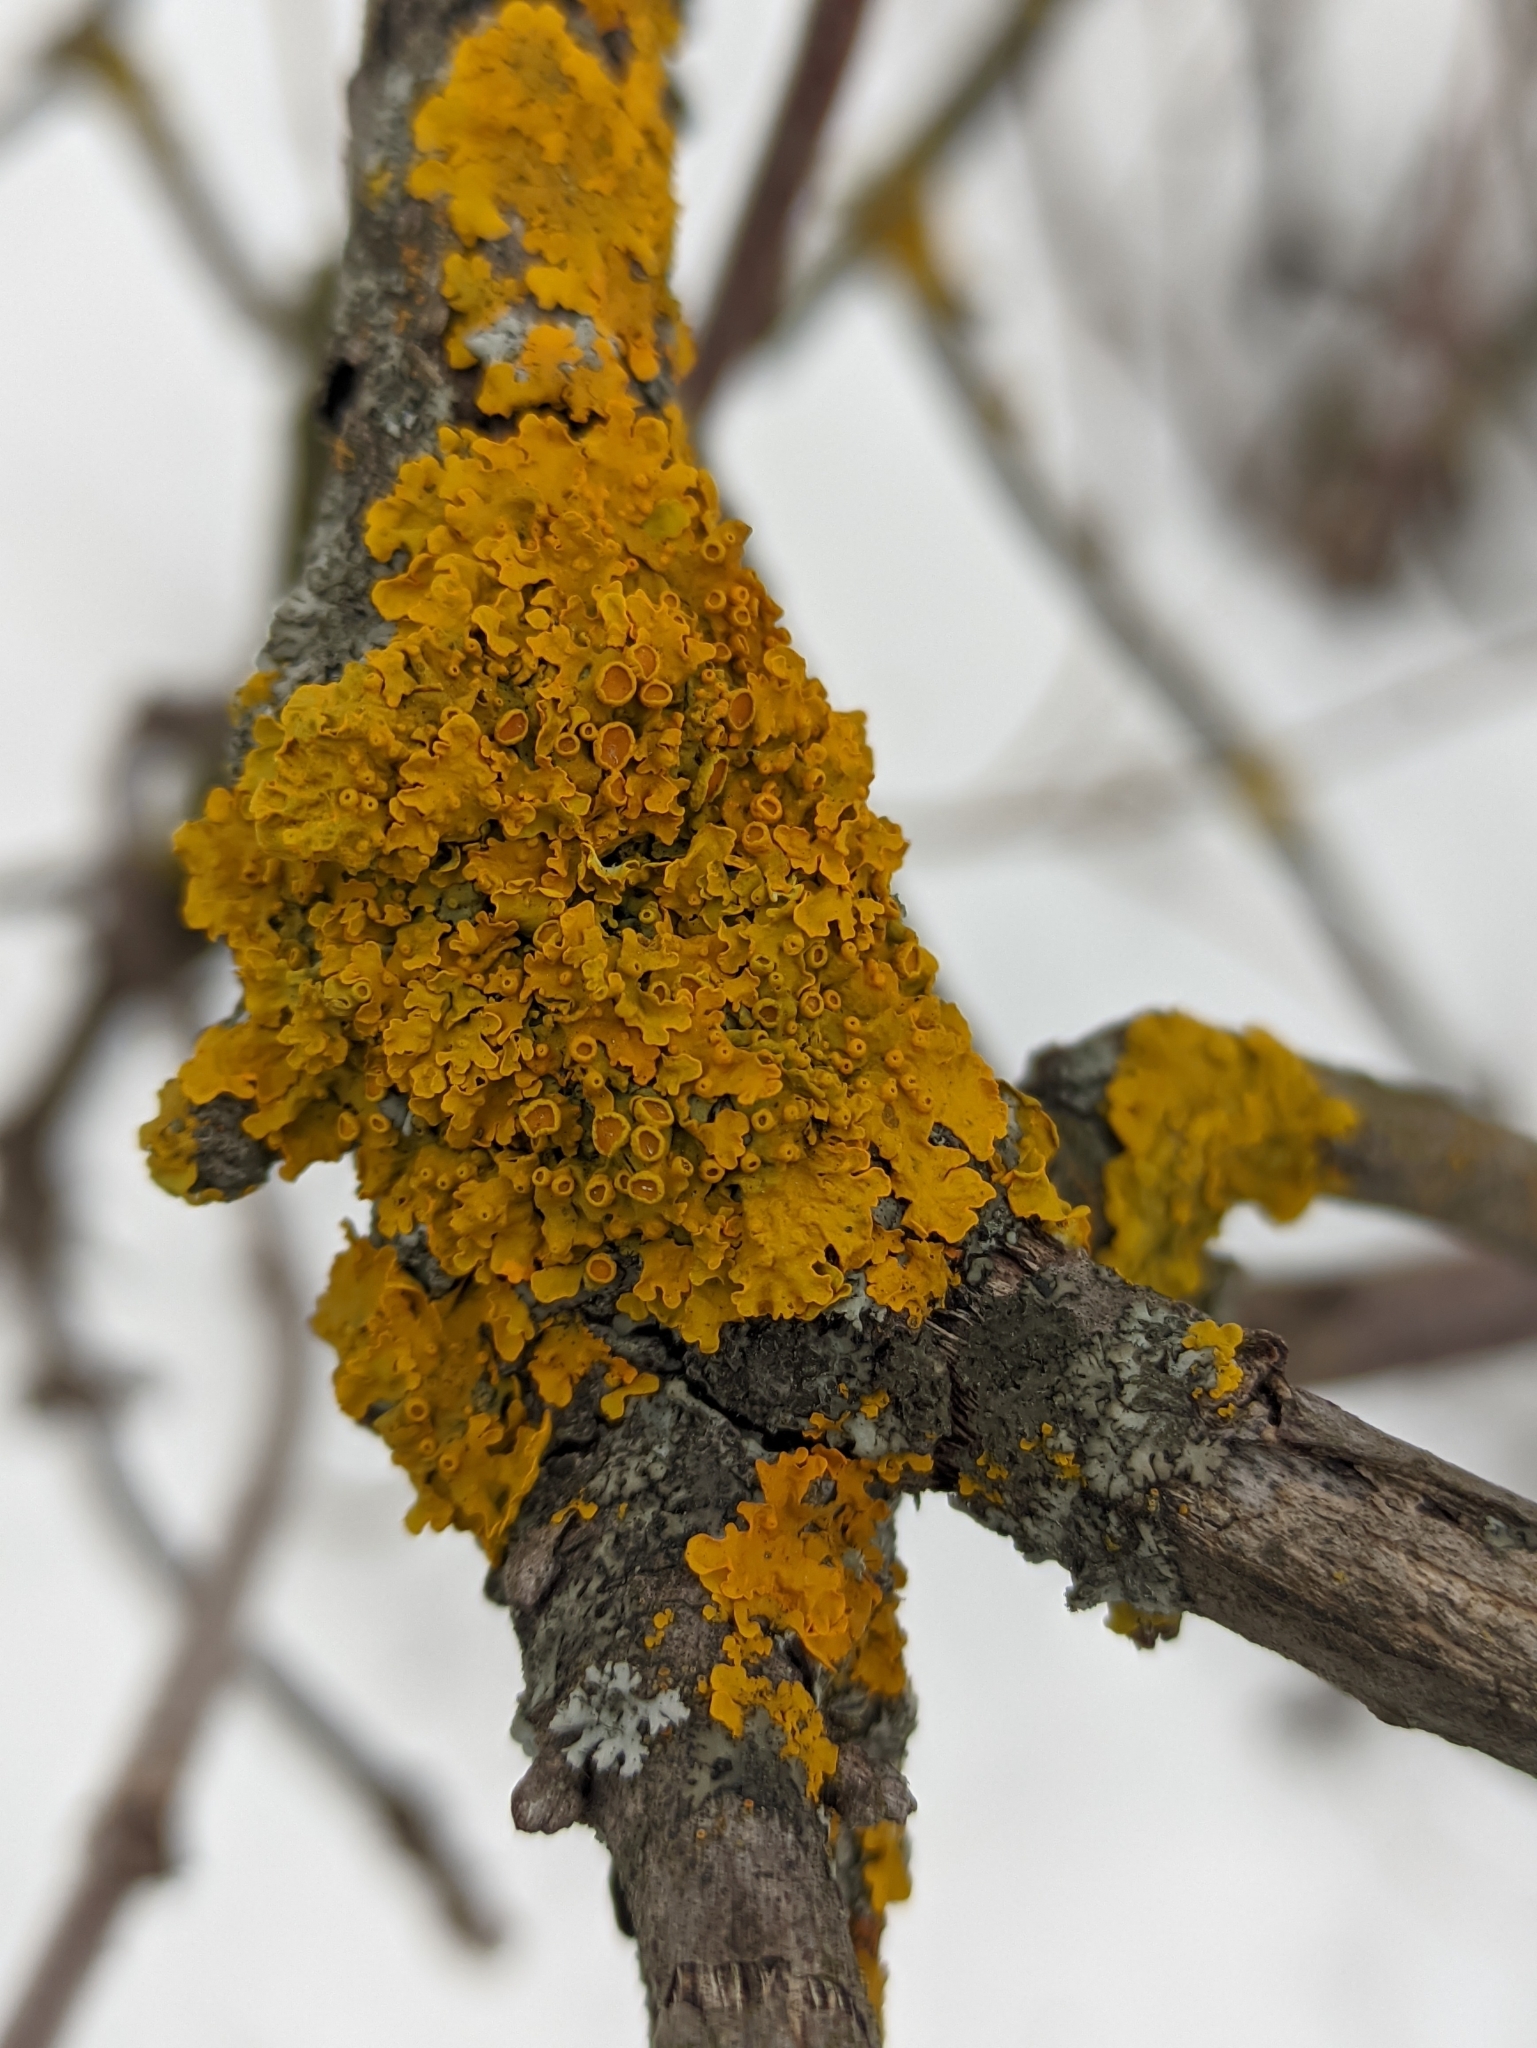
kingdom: Fungi
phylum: Ascomycota
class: Lecanoromycetes
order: Teloschistales
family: Teloschistaceae
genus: Xanthoria
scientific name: Xanthoria parietina
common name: Common orange lichen
